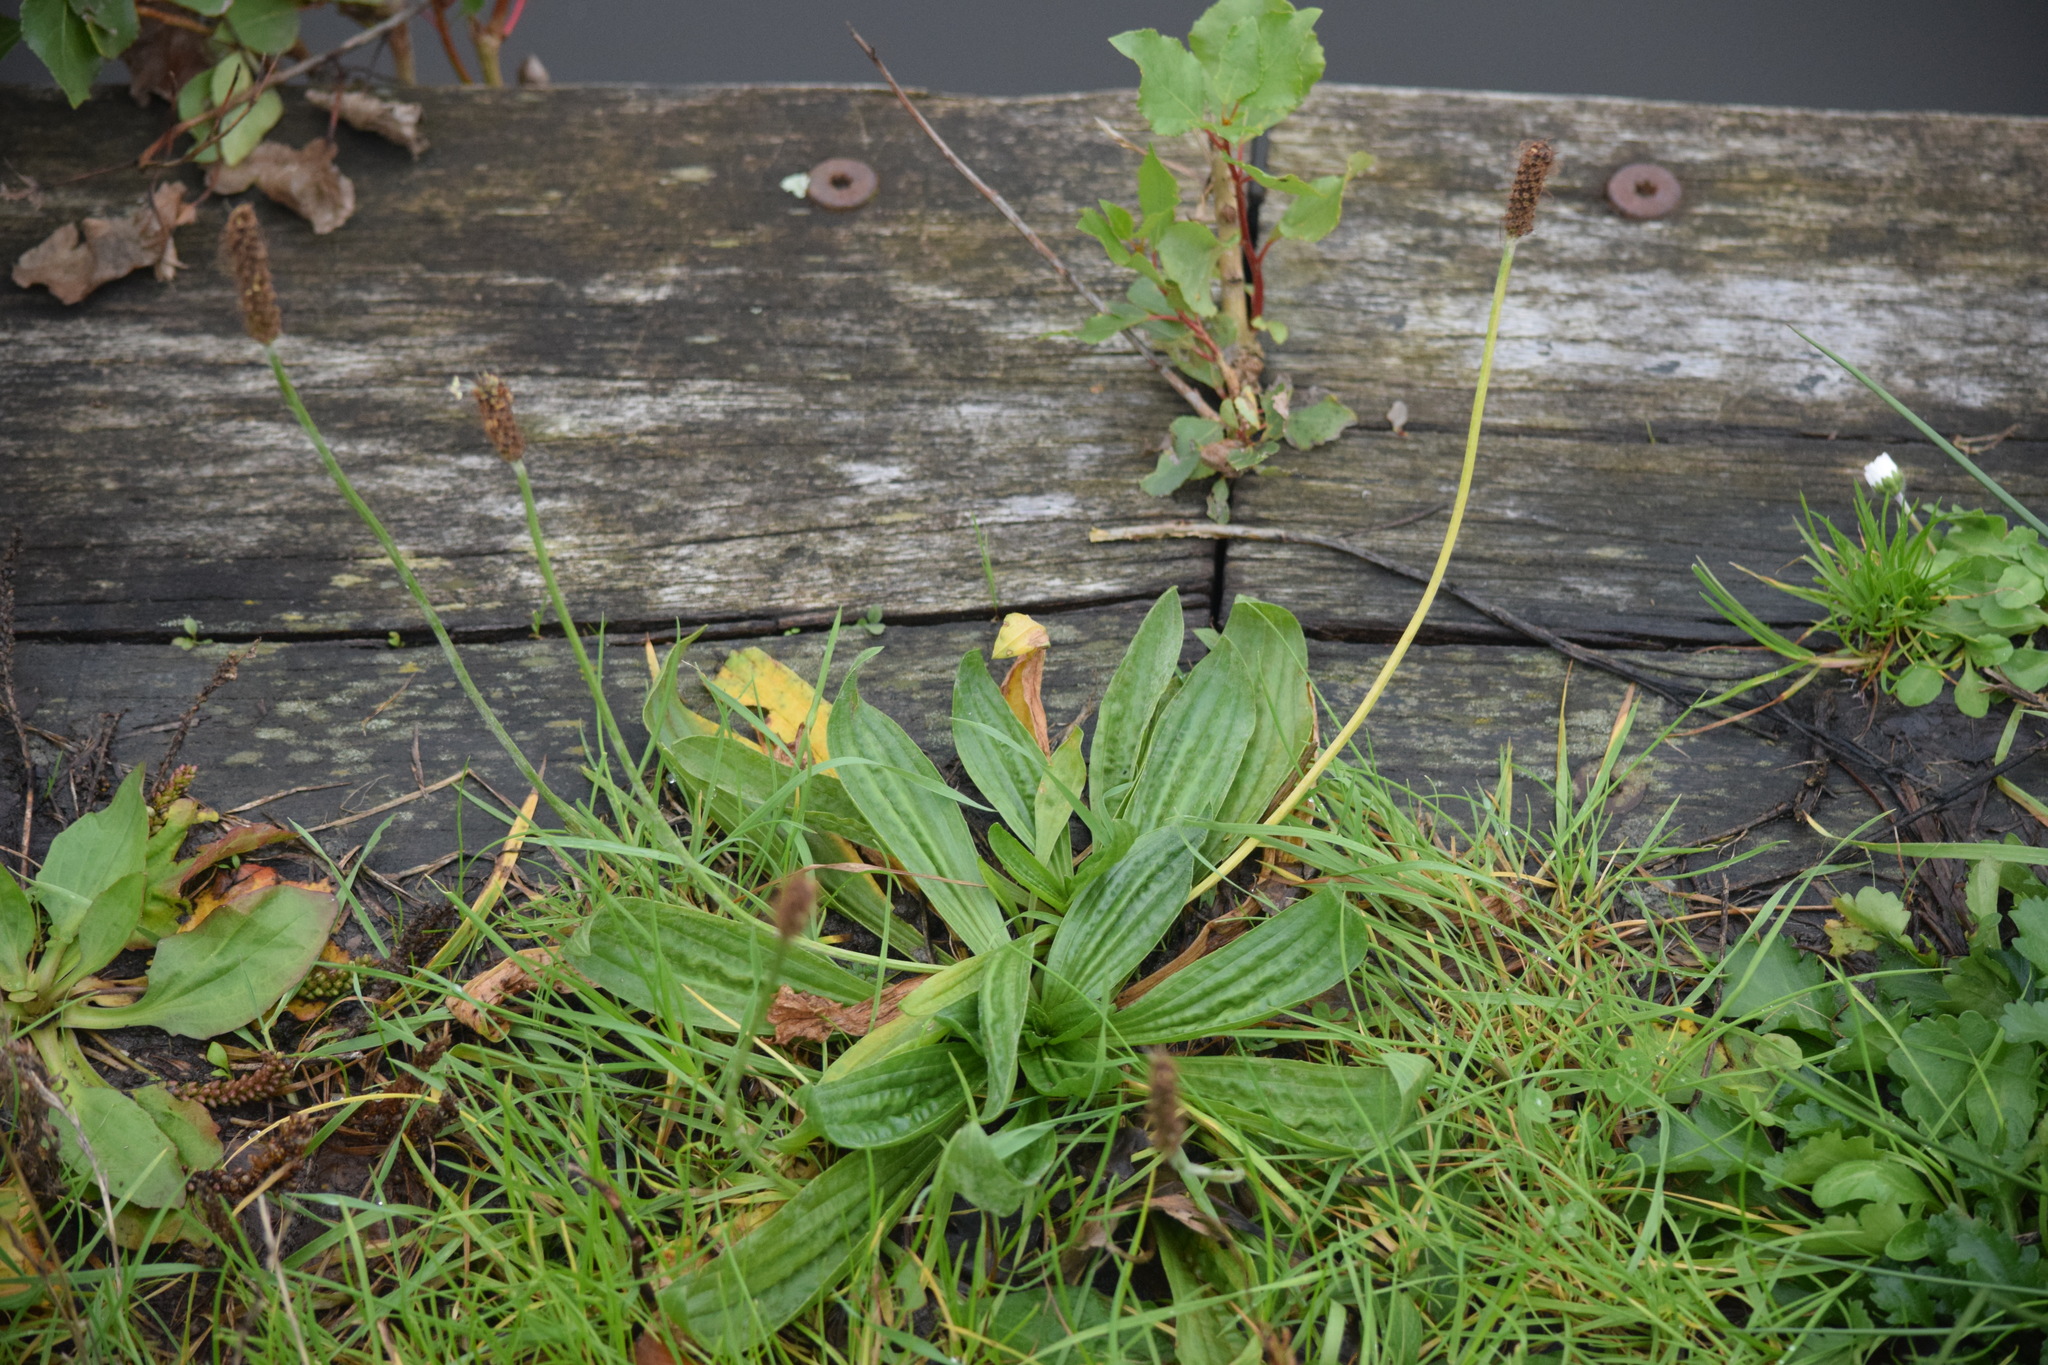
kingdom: Plantae
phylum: Tracheophyta
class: Magnoliopsida
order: Lamiales
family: Plantaginaceae
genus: Plantago
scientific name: Plantago lanceolata
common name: Ribwort plantain
